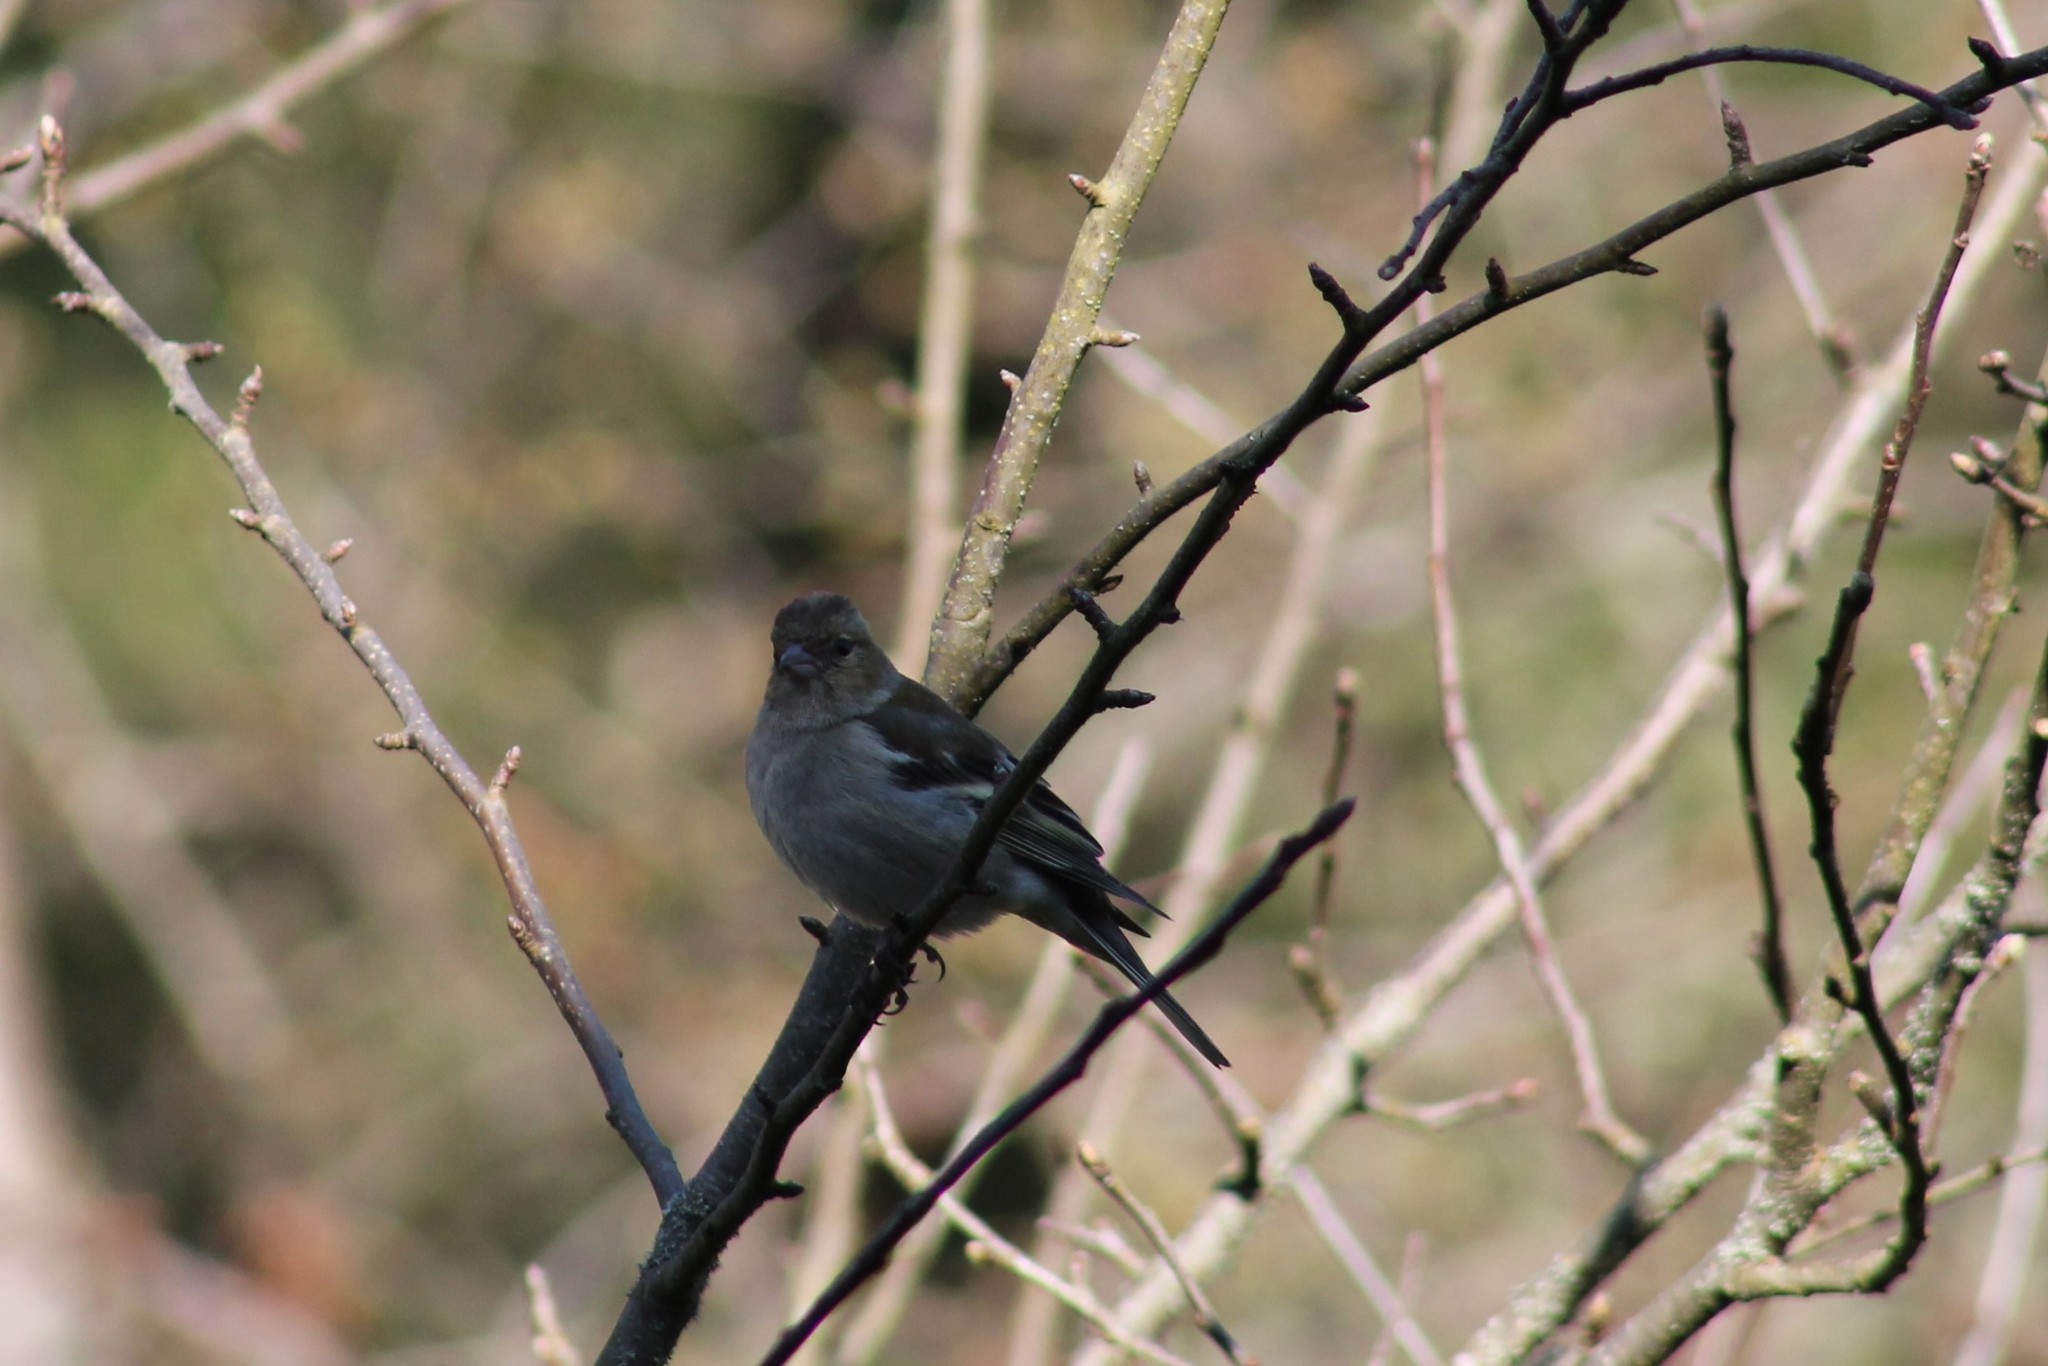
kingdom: Animalia
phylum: Chordata
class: Aves
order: Passeriformes
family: Fringillidae
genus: Fringilla
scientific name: Fringilla coelebs
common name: Common chaffinch
